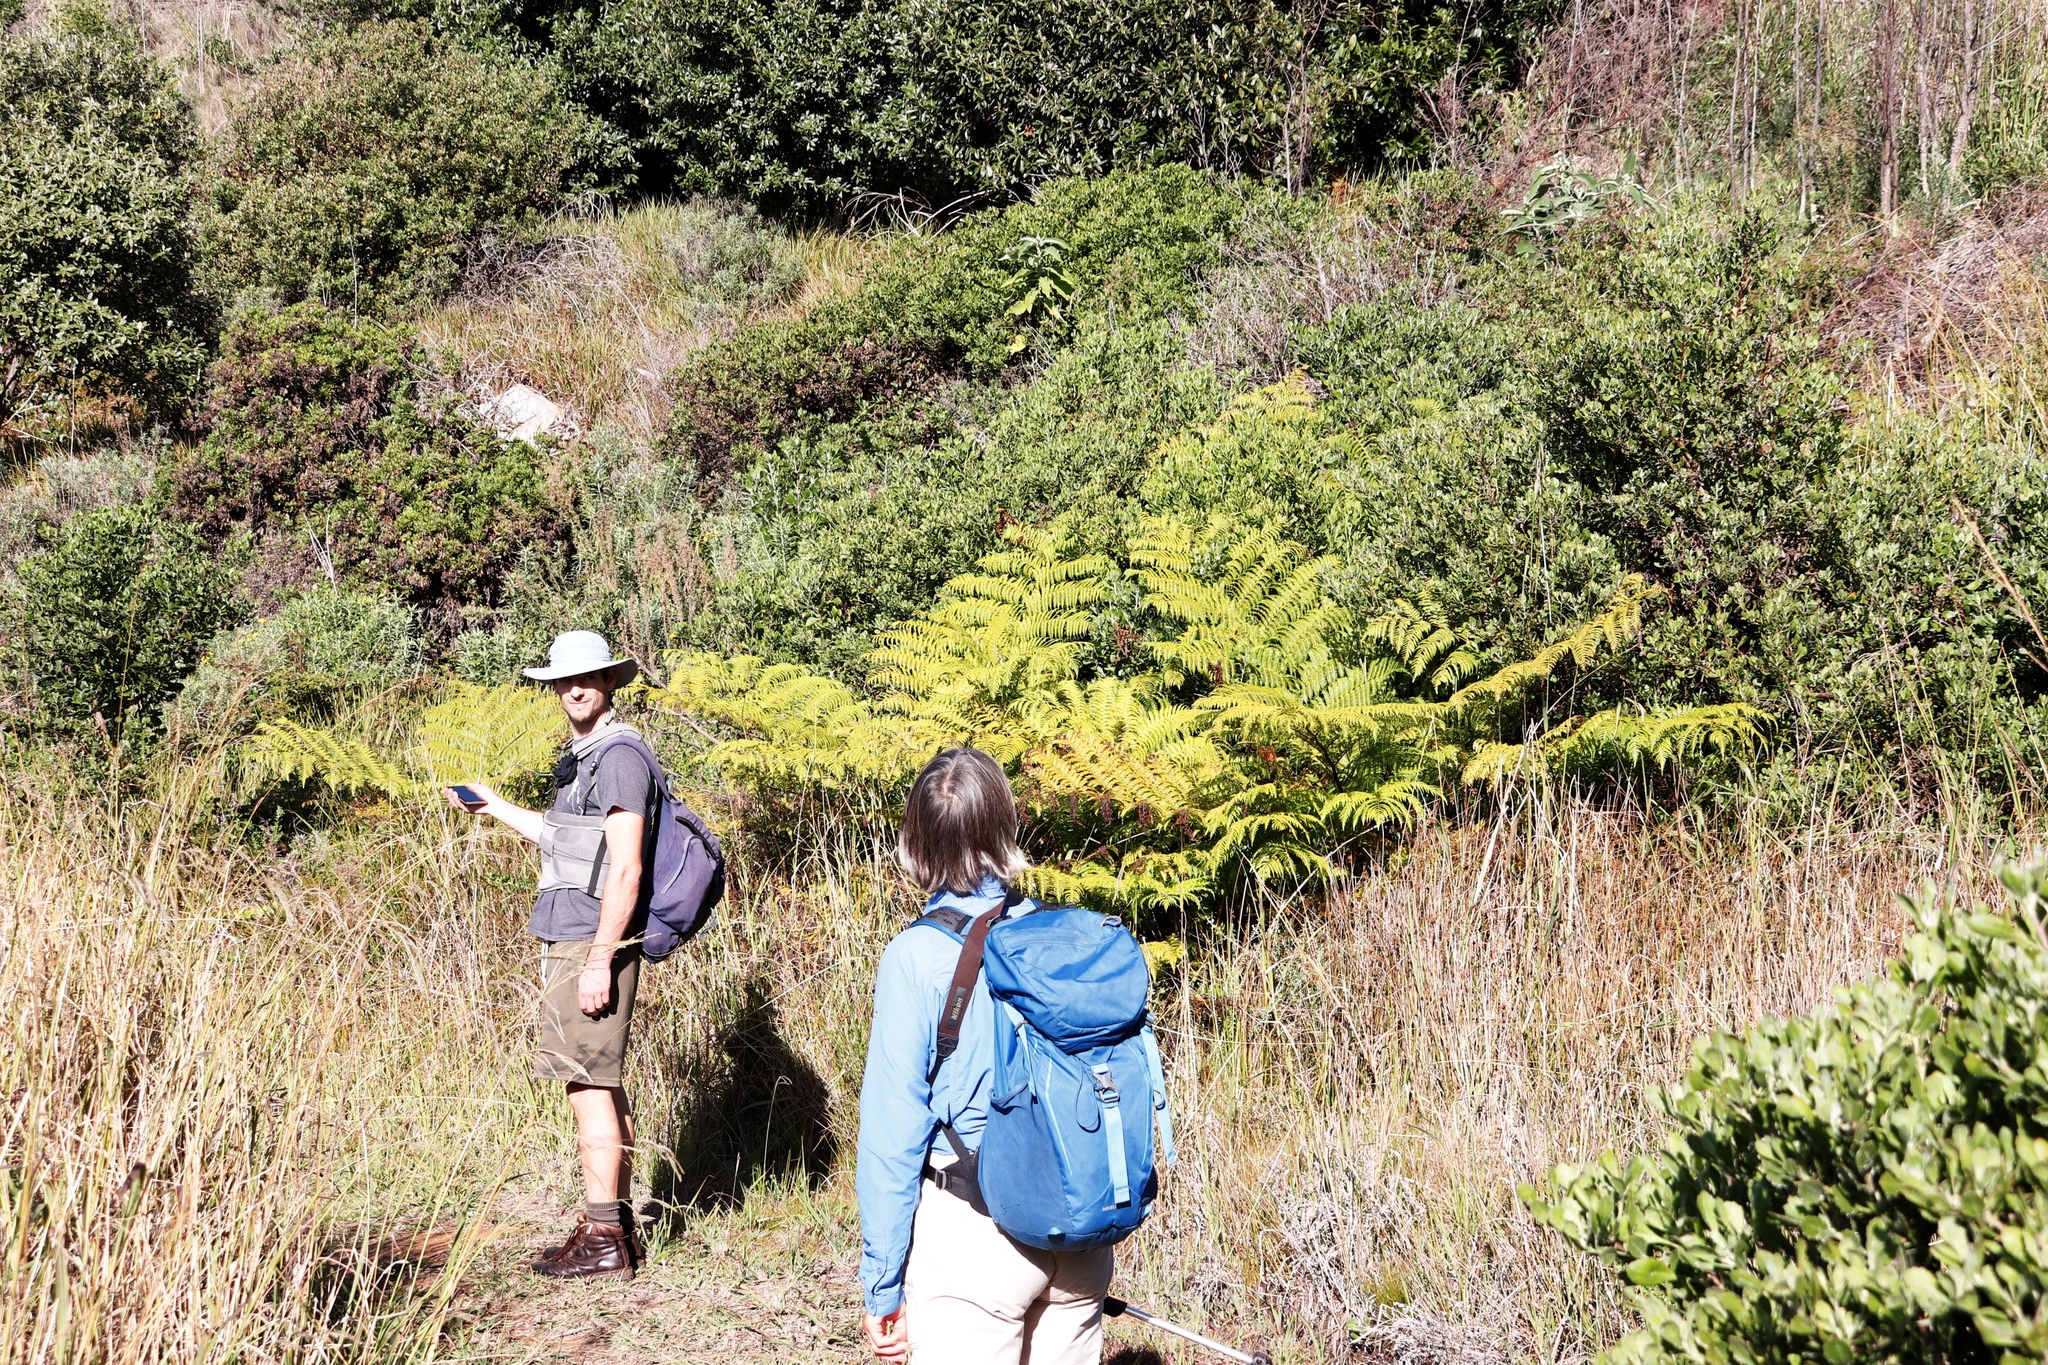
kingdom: Plantae
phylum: Tracheophyta
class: Polypodiopsida
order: Cyatheales
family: Cyatheaceae
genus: Sphaeropteris
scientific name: Sphaeropteris cooperi
